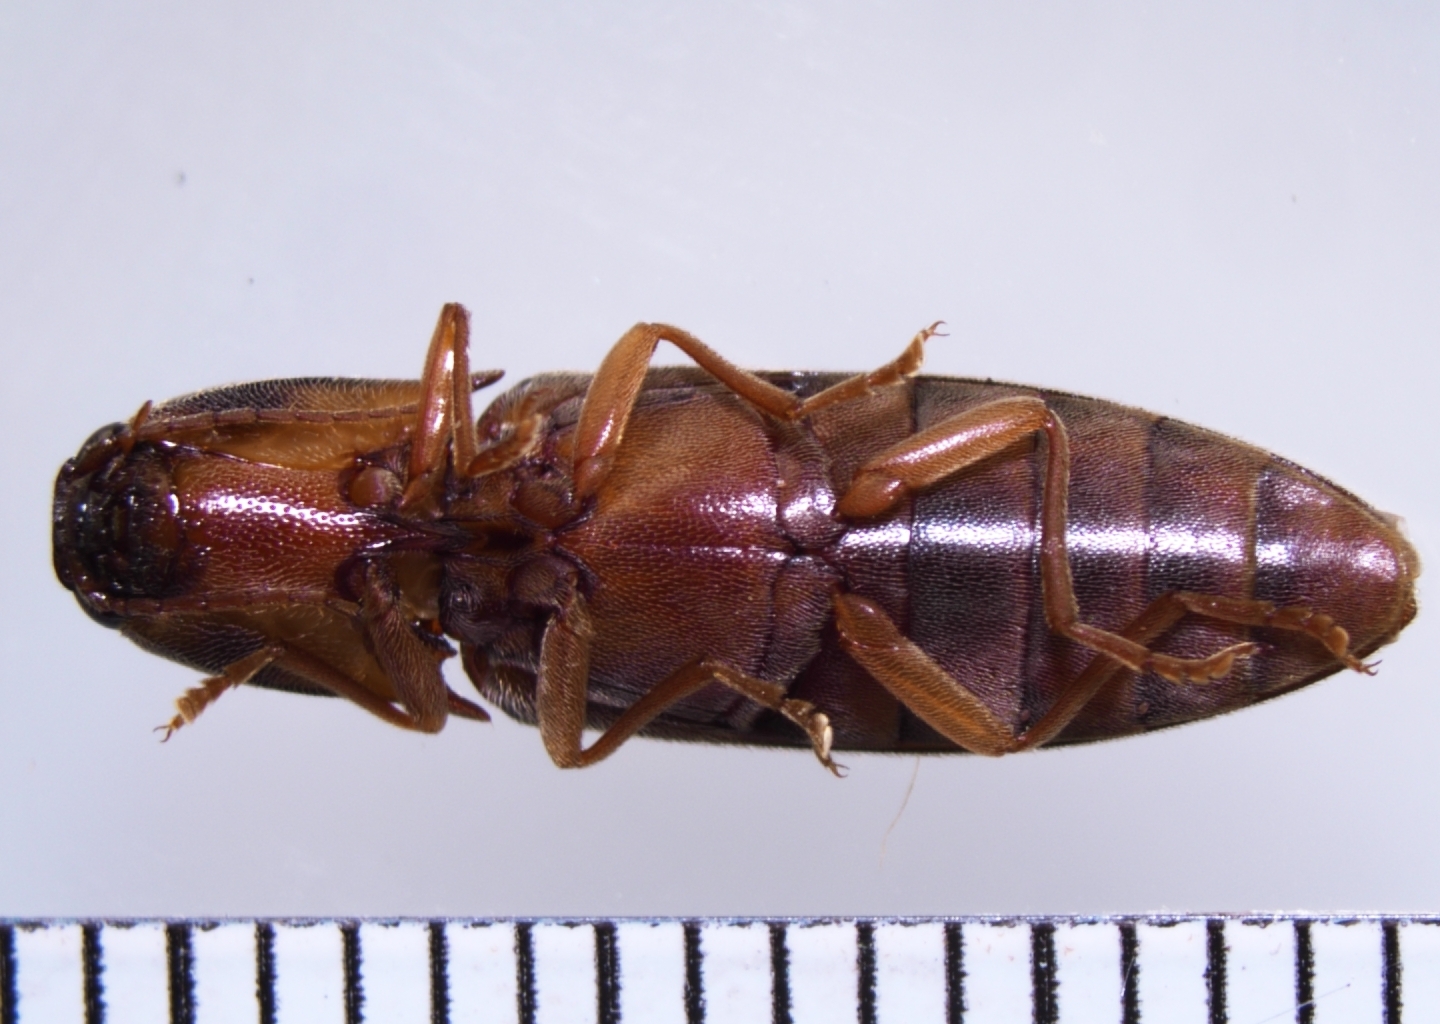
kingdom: Animalia
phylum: Arthropoda
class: Insecta
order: Coleoptera
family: Elateridae
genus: Simodactylus
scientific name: Simodactylus cinnamomeus
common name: Click beetle
